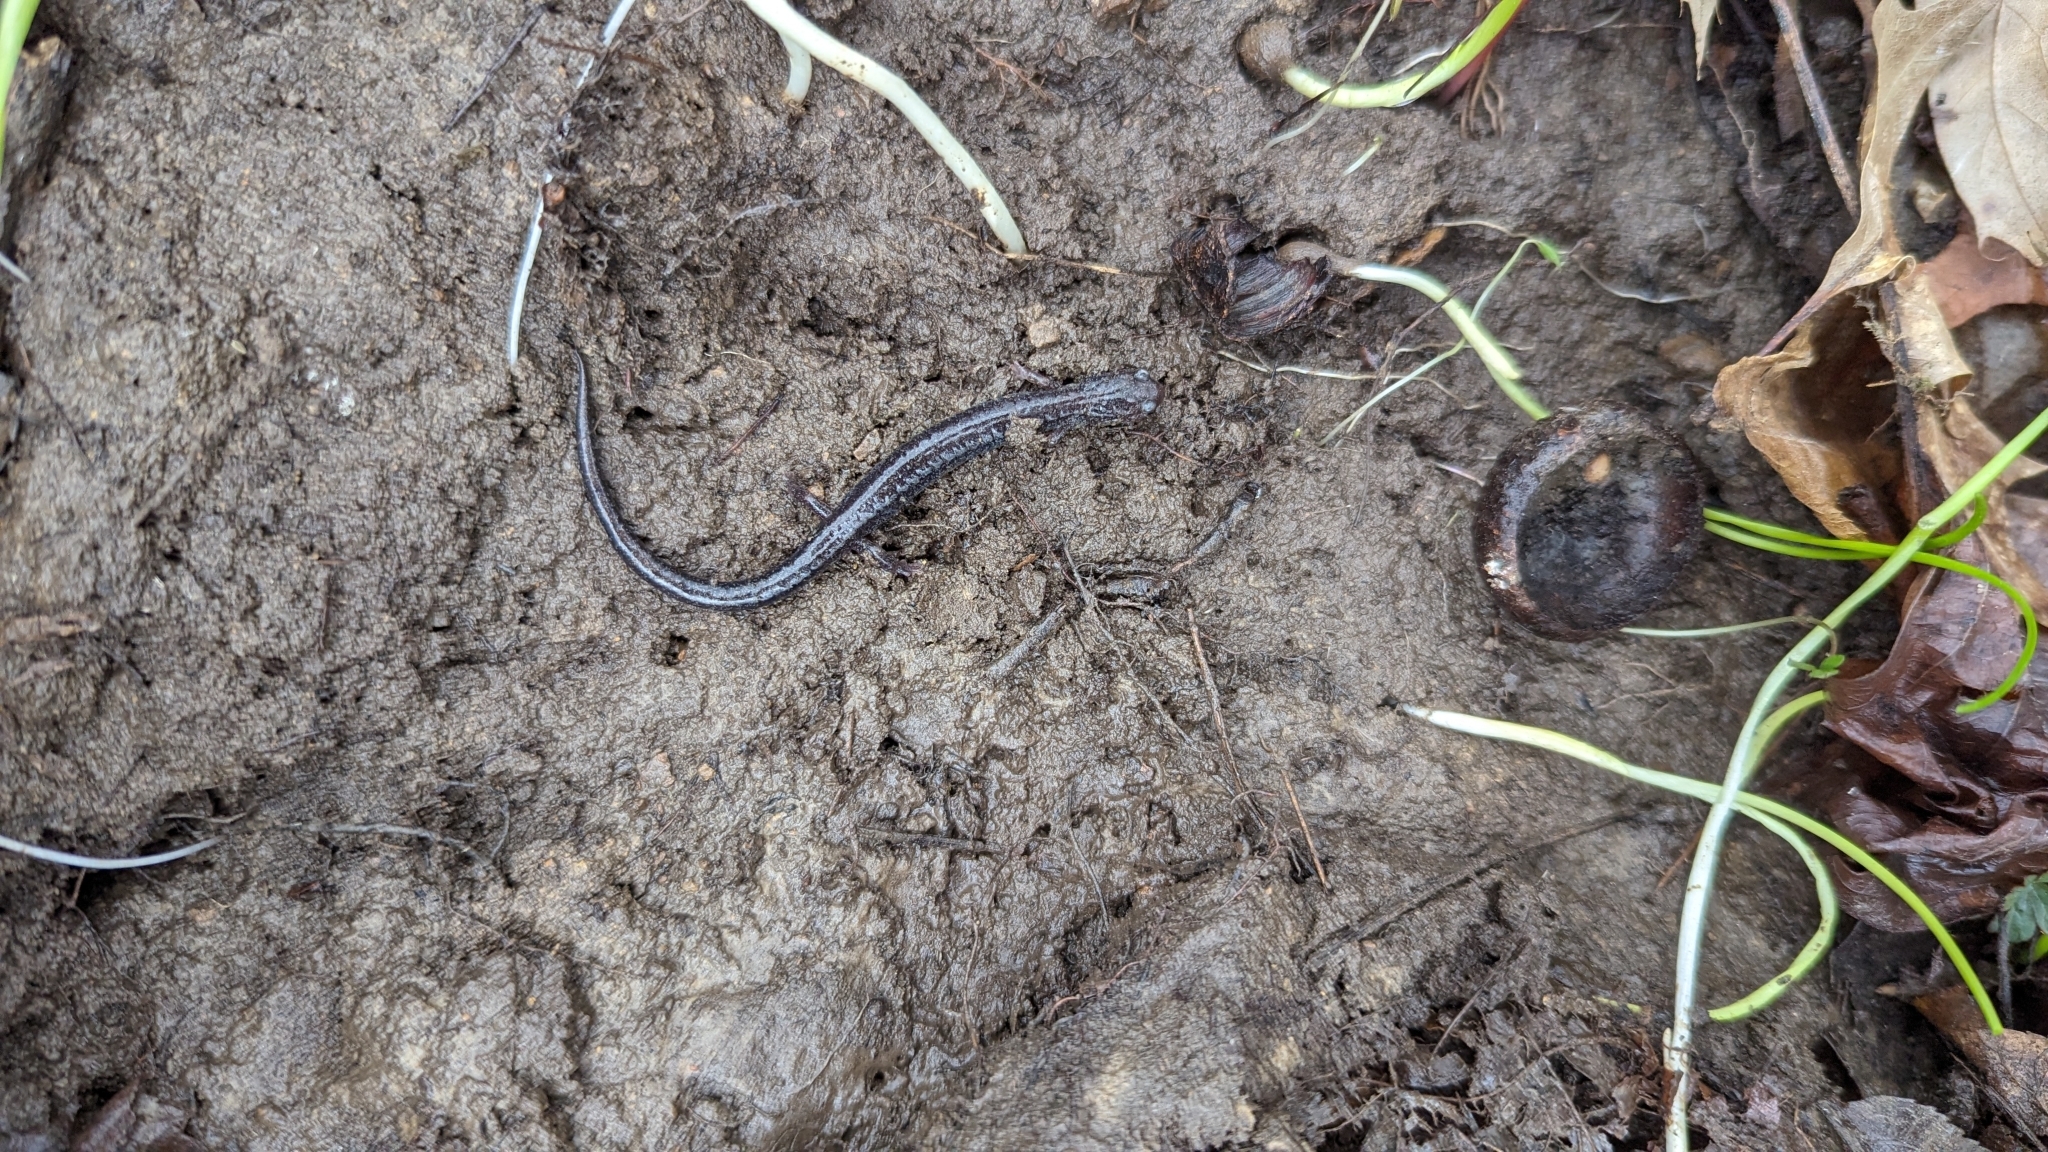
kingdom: Animalia
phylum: Chordata
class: Amphibia
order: Caudata
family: Plethodontidae
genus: Plethodon
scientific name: Plethodon cinereus
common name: Redback salamander
